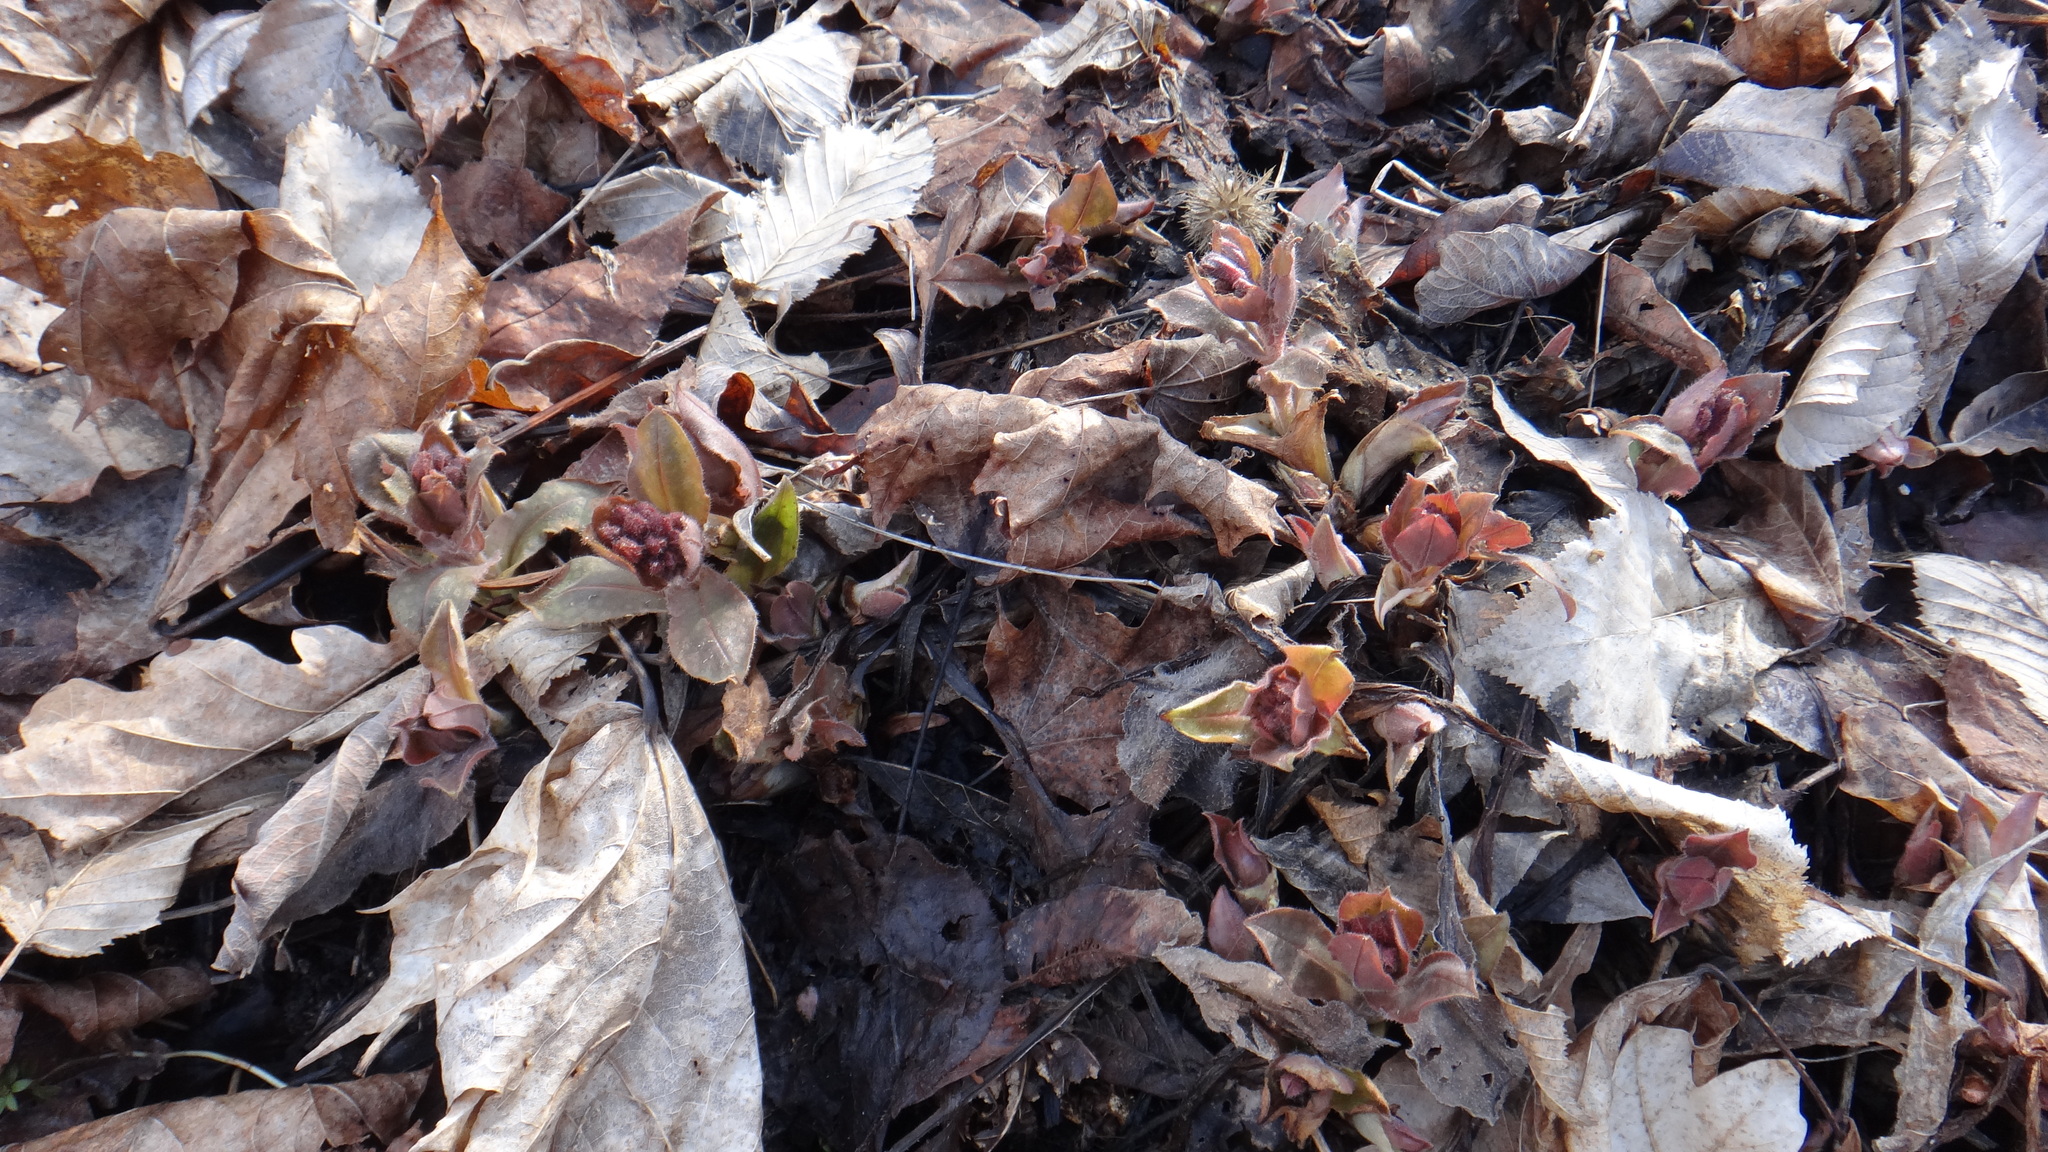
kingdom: Plantae
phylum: Tracheophyta
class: Magnoliopsida
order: Boraginales
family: Boraginaceae
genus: Pulmonaria
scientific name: Pulmonaria obscura
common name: Suffolk lungwort
